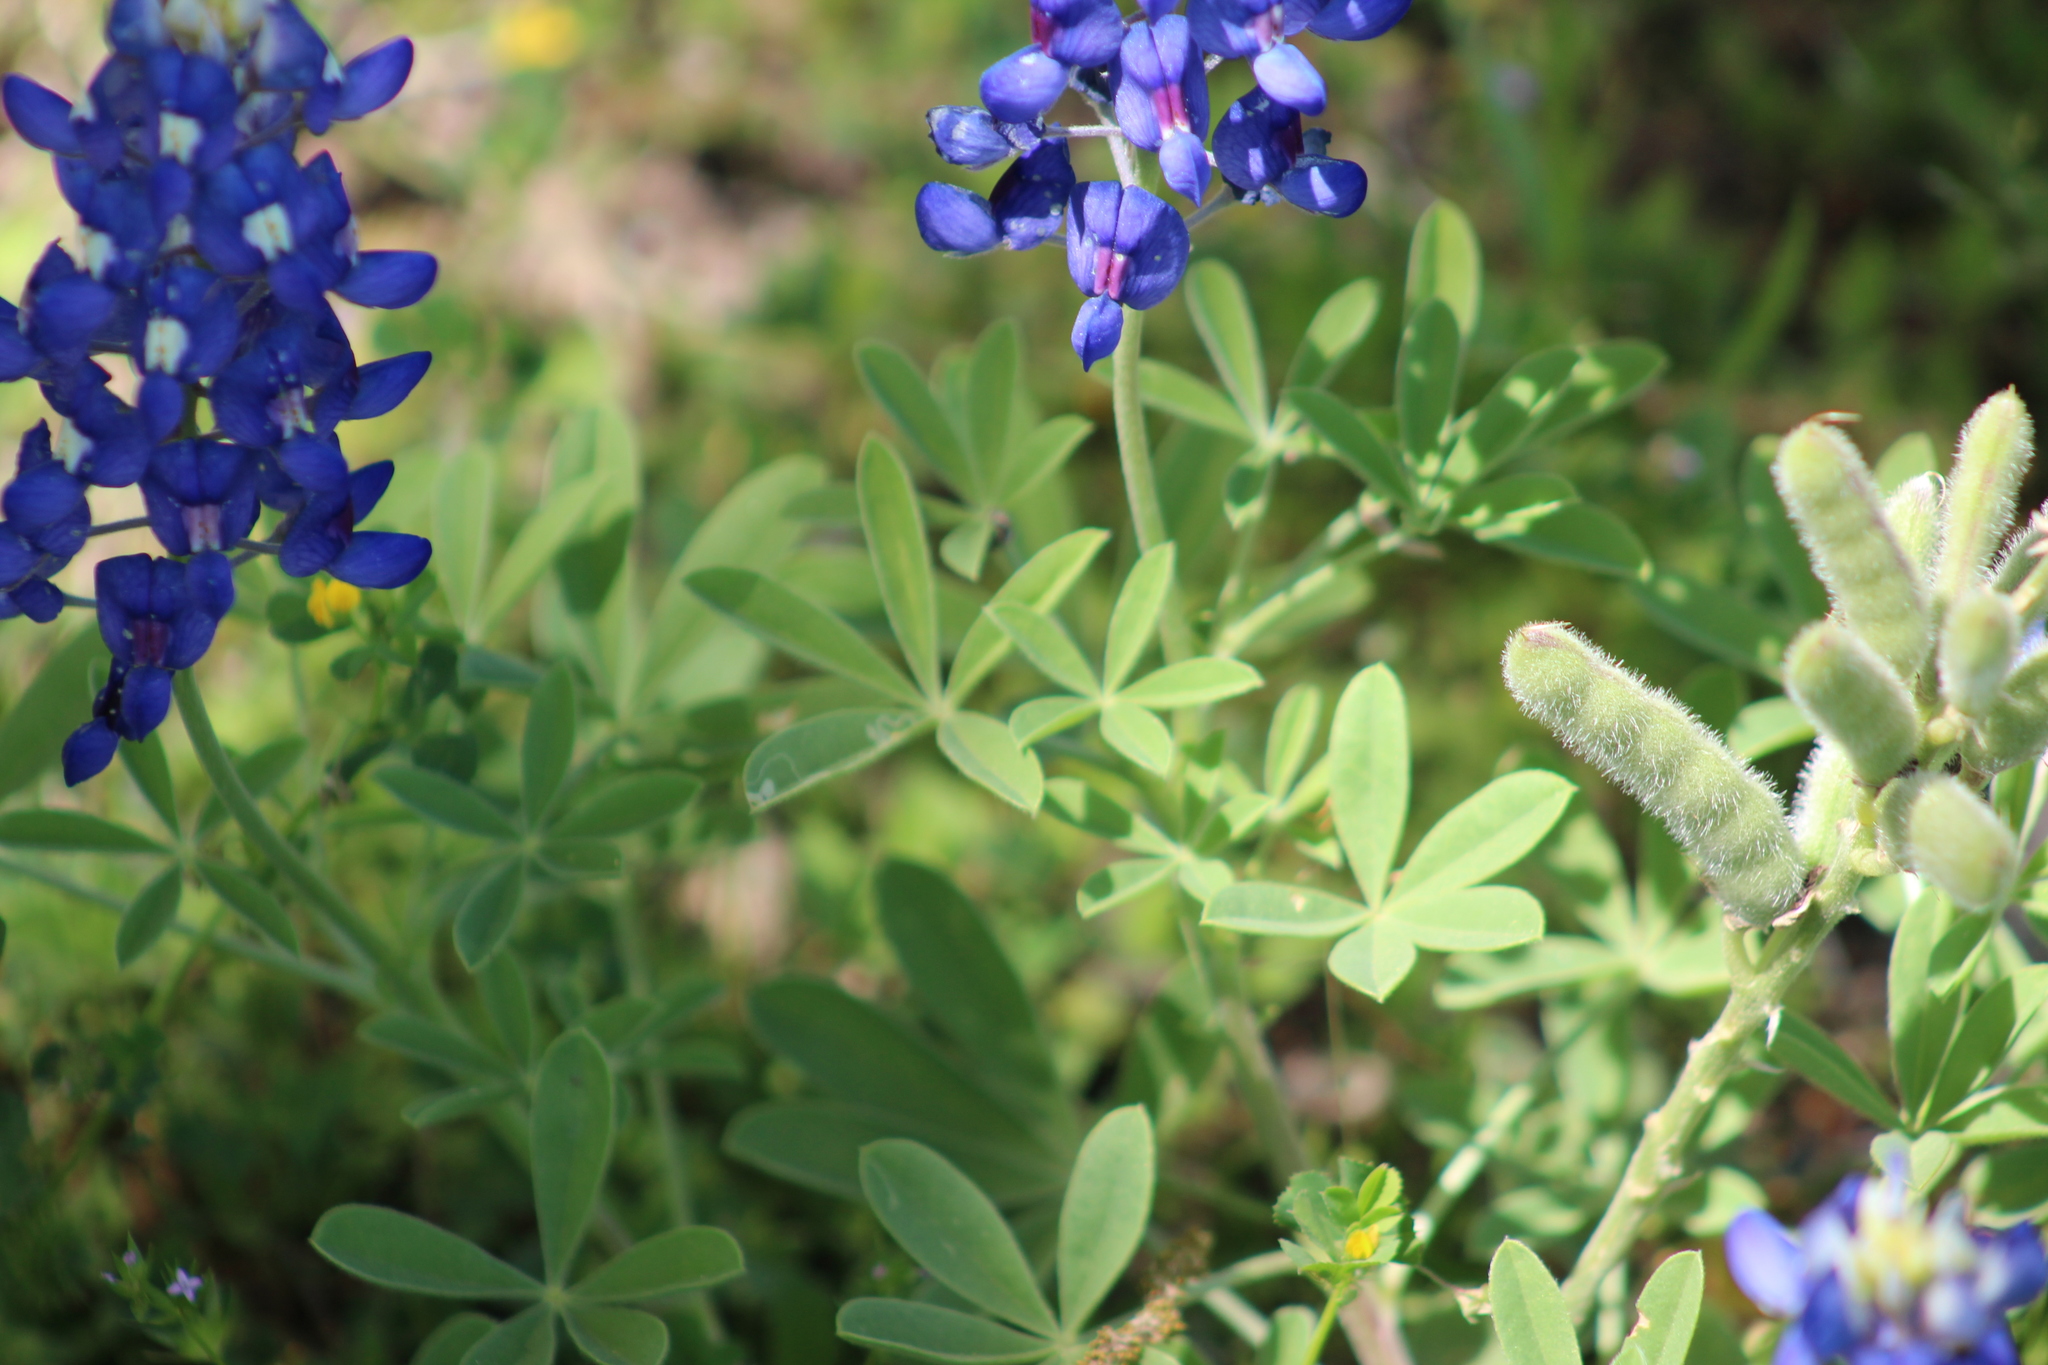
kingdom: Plantae
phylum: Tracheophyta
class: Magnoliopsida
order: Fabales
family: Fabaceae
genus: Lupinus
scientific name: Lupinus texensis
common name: Texas bluebonnet
